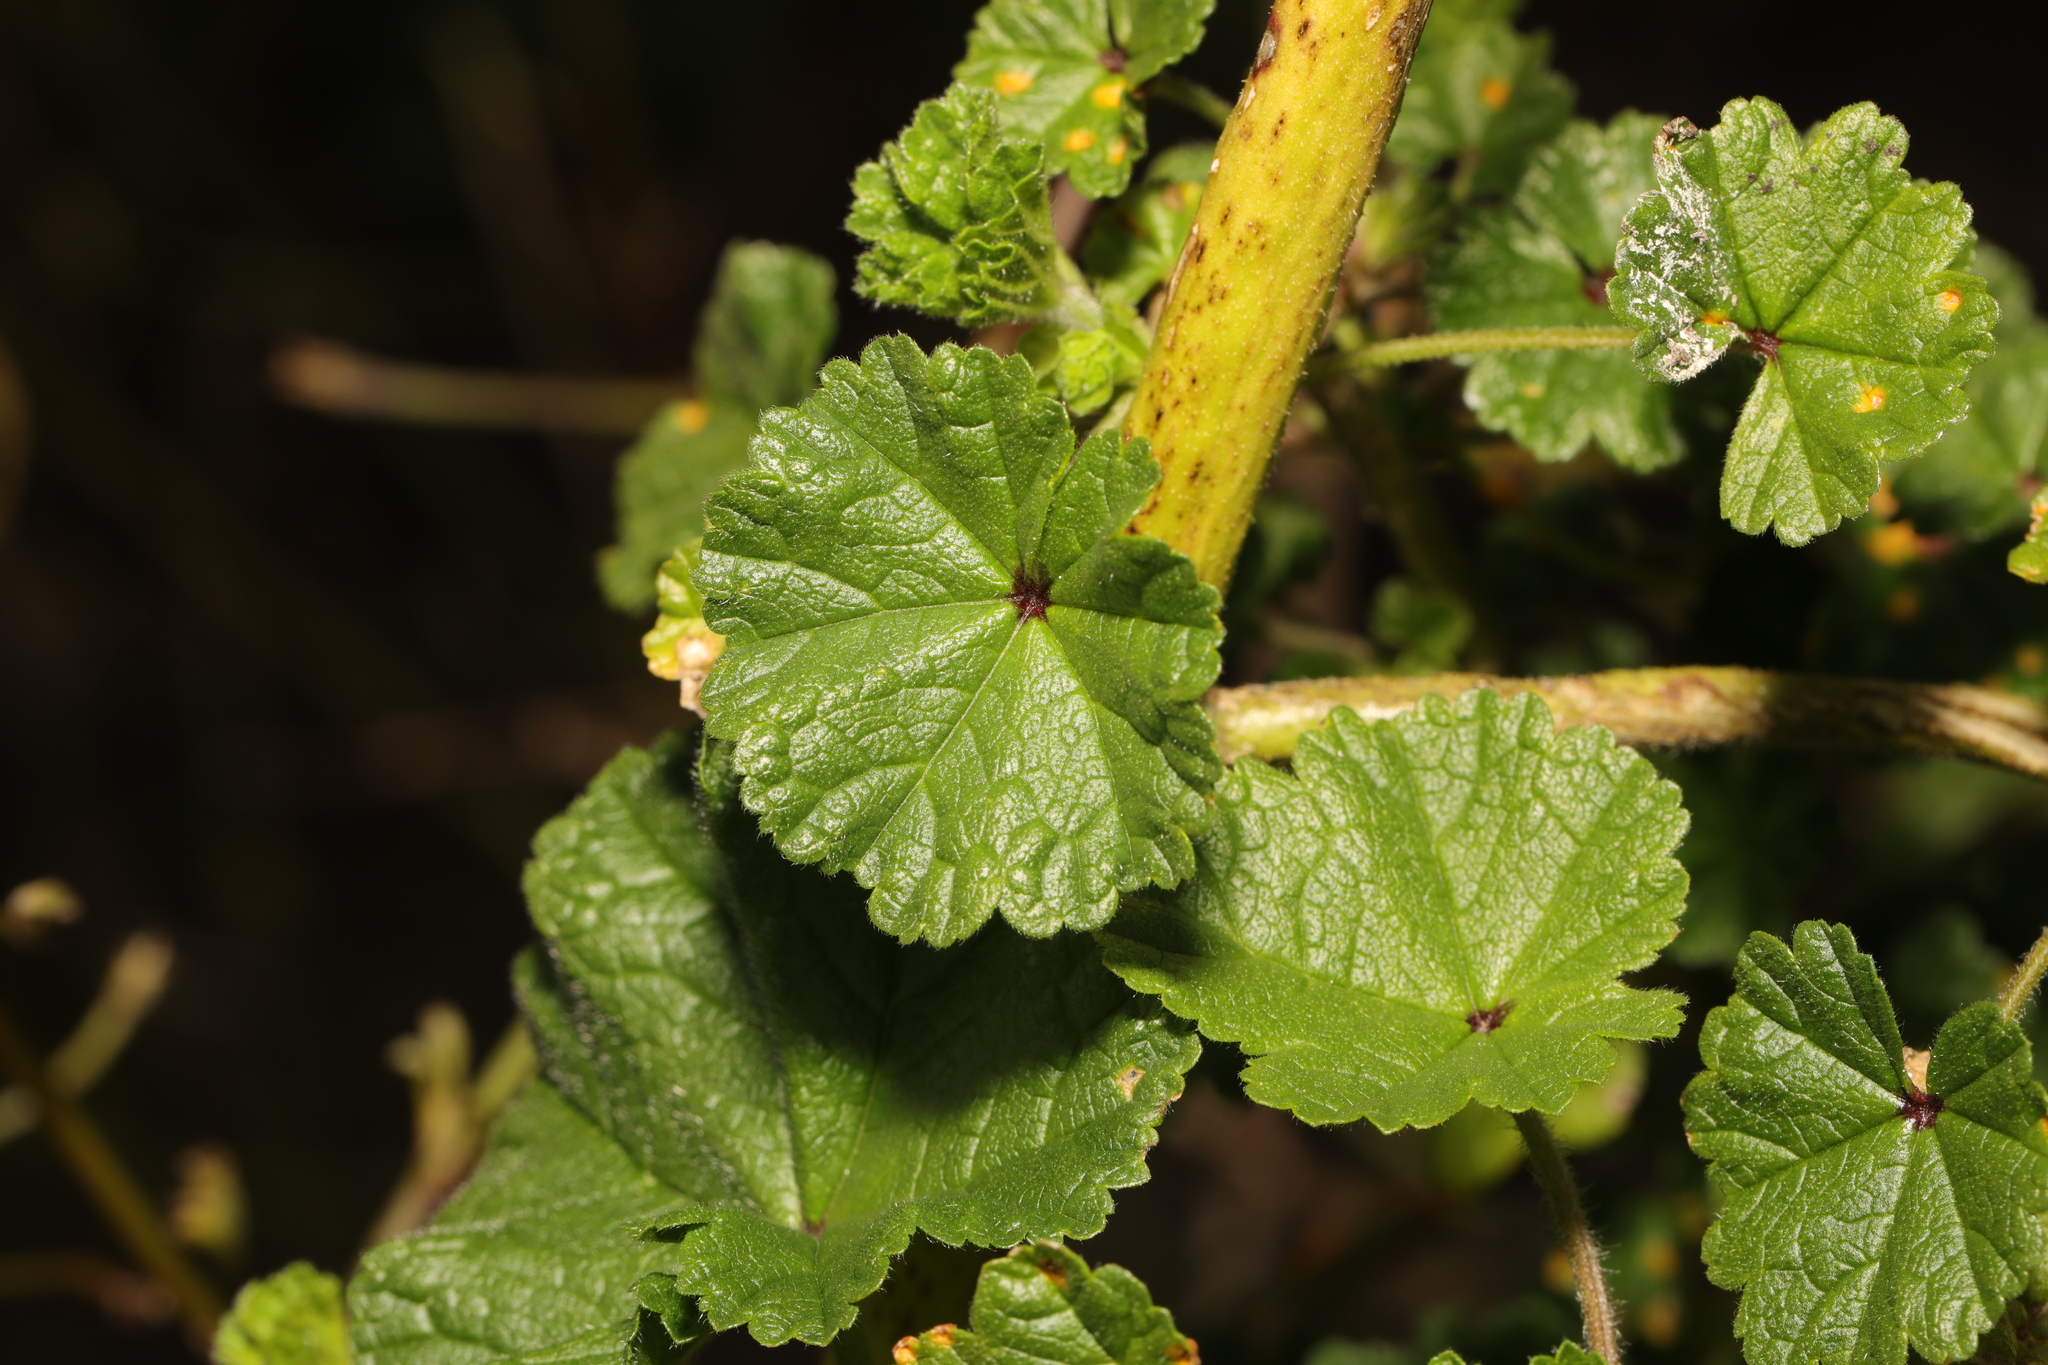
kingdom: Plantae
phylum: Tracheophyta
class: Magnoliopsida
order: Malvales
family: Malvaceae
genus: Malva
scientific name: Malva sylvestris
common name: Common mallow
